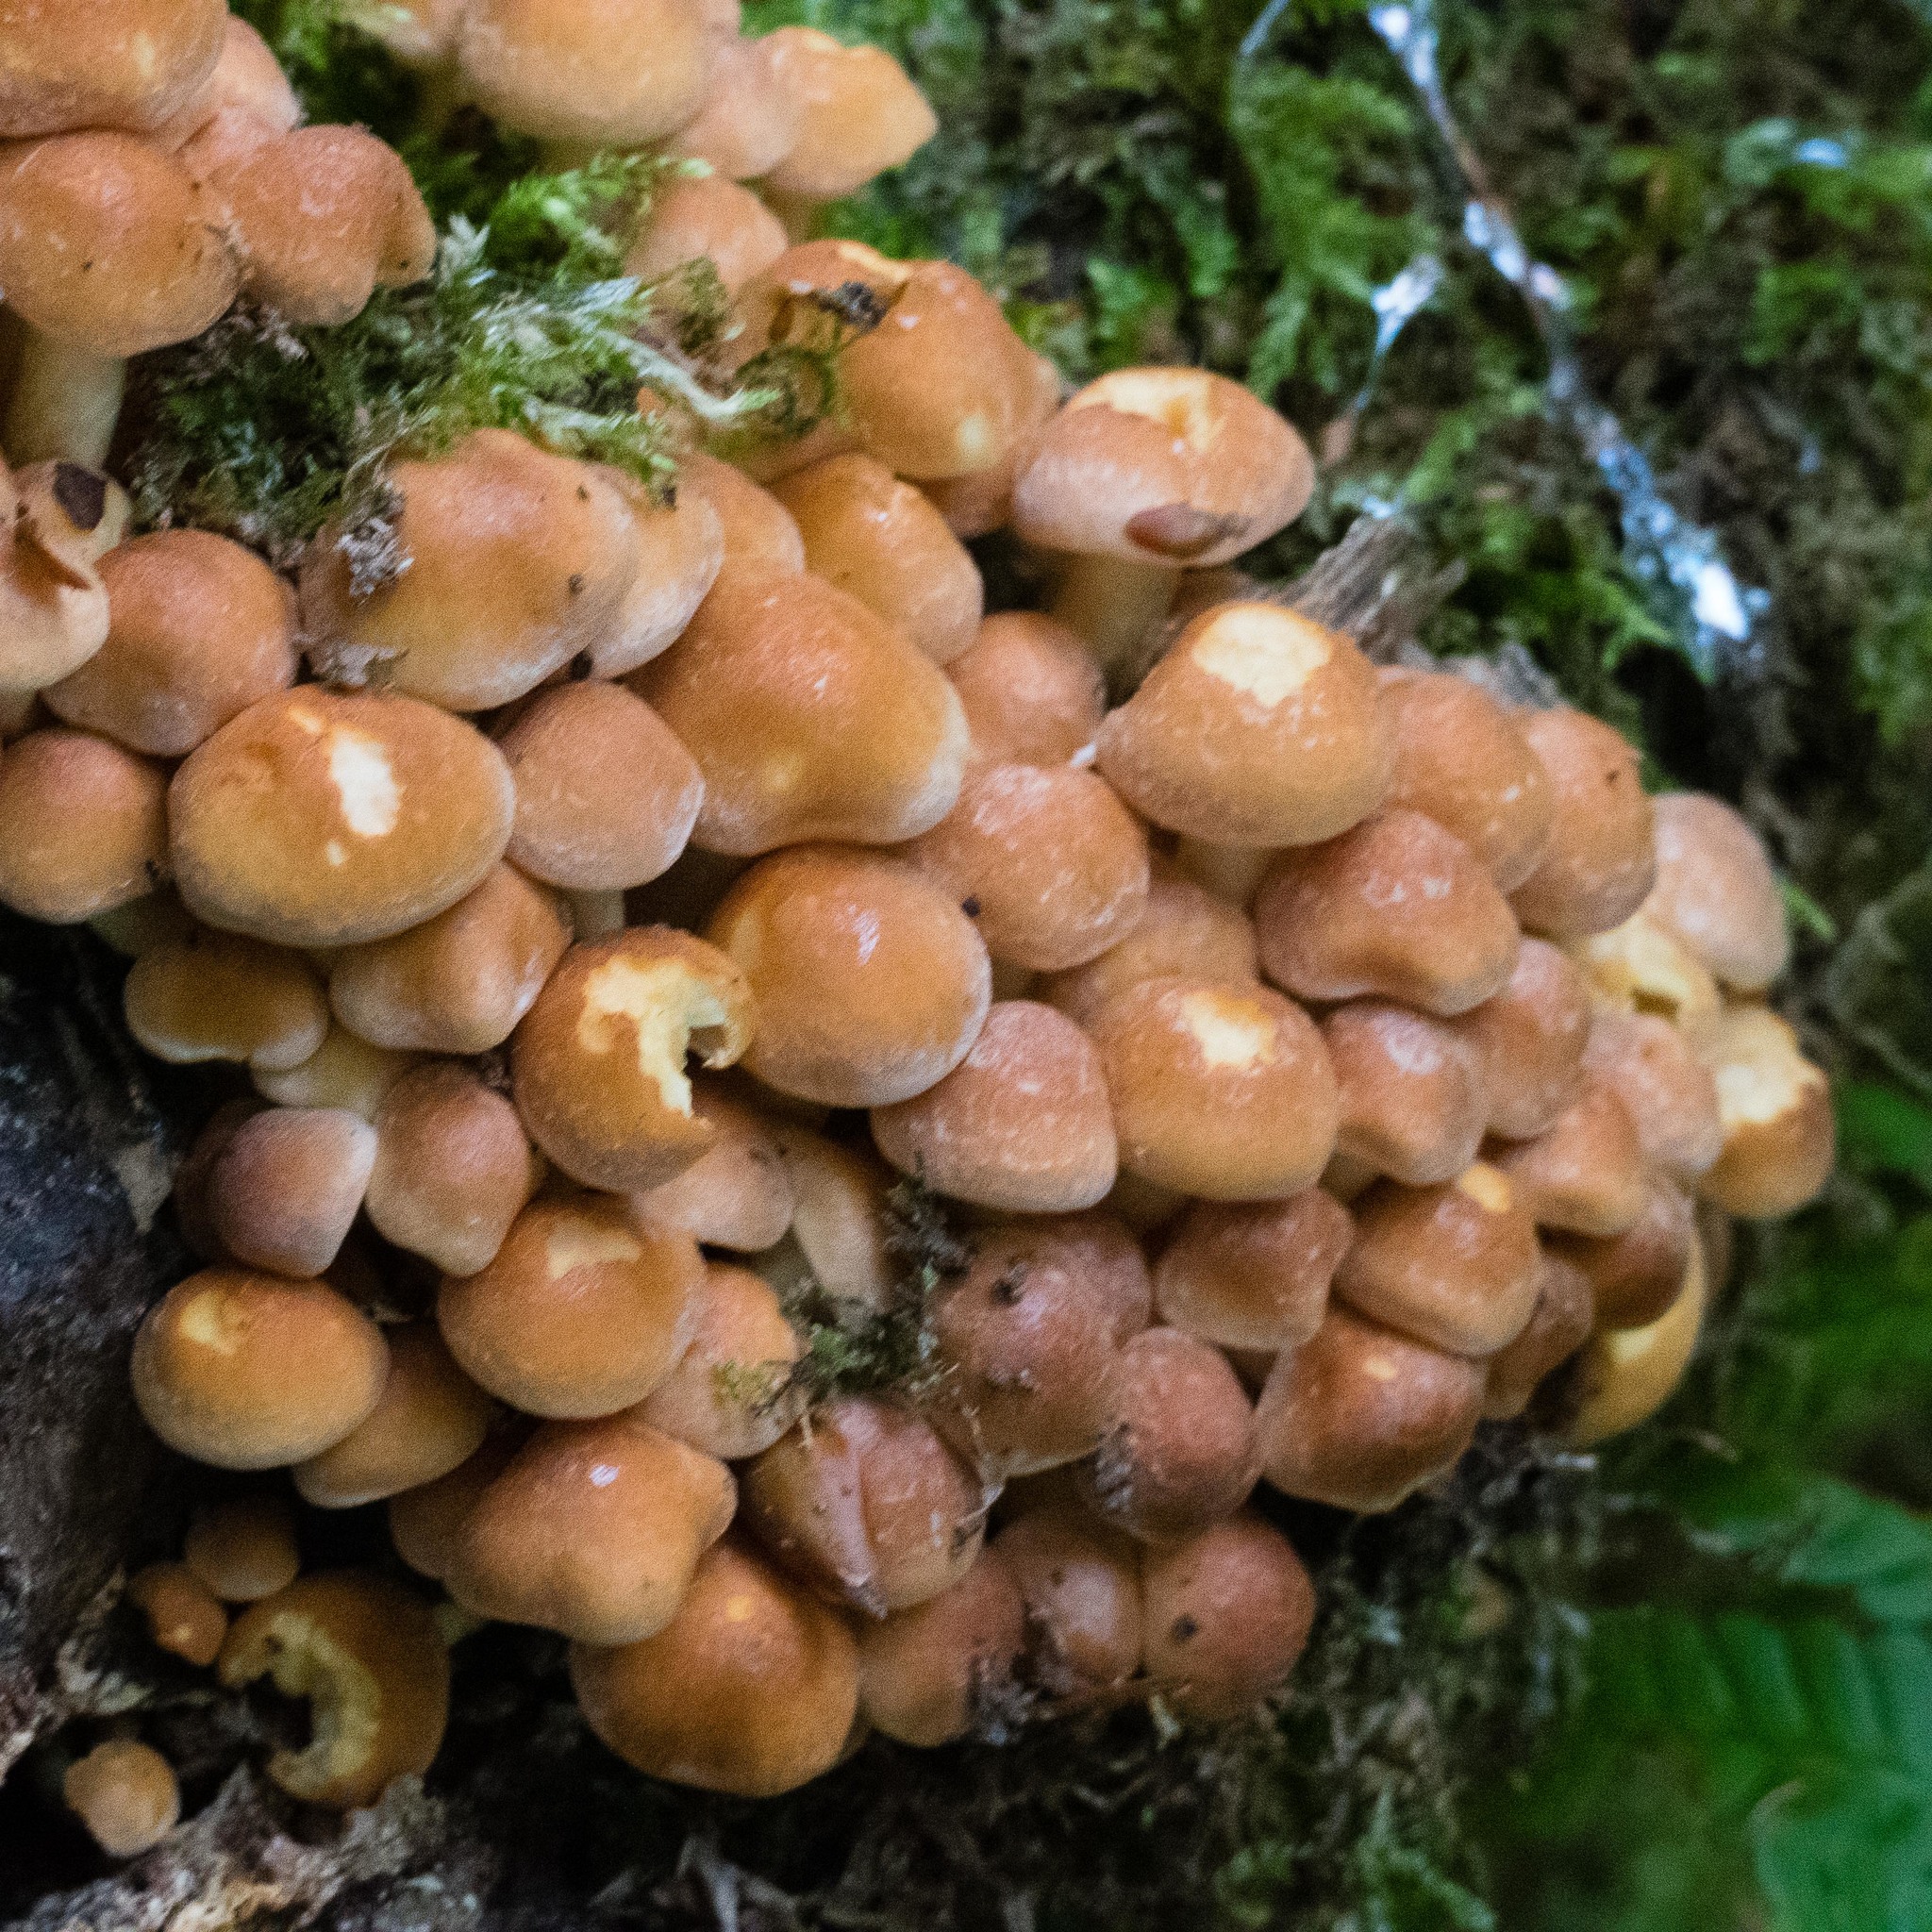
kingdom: Fungi
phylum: Basidiomycota
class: Agaricomycetes
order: Agaricales
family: Strophariaceae
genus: Hypholoma
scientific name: Hypholoma fasciculare
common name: Sulphur tuft
